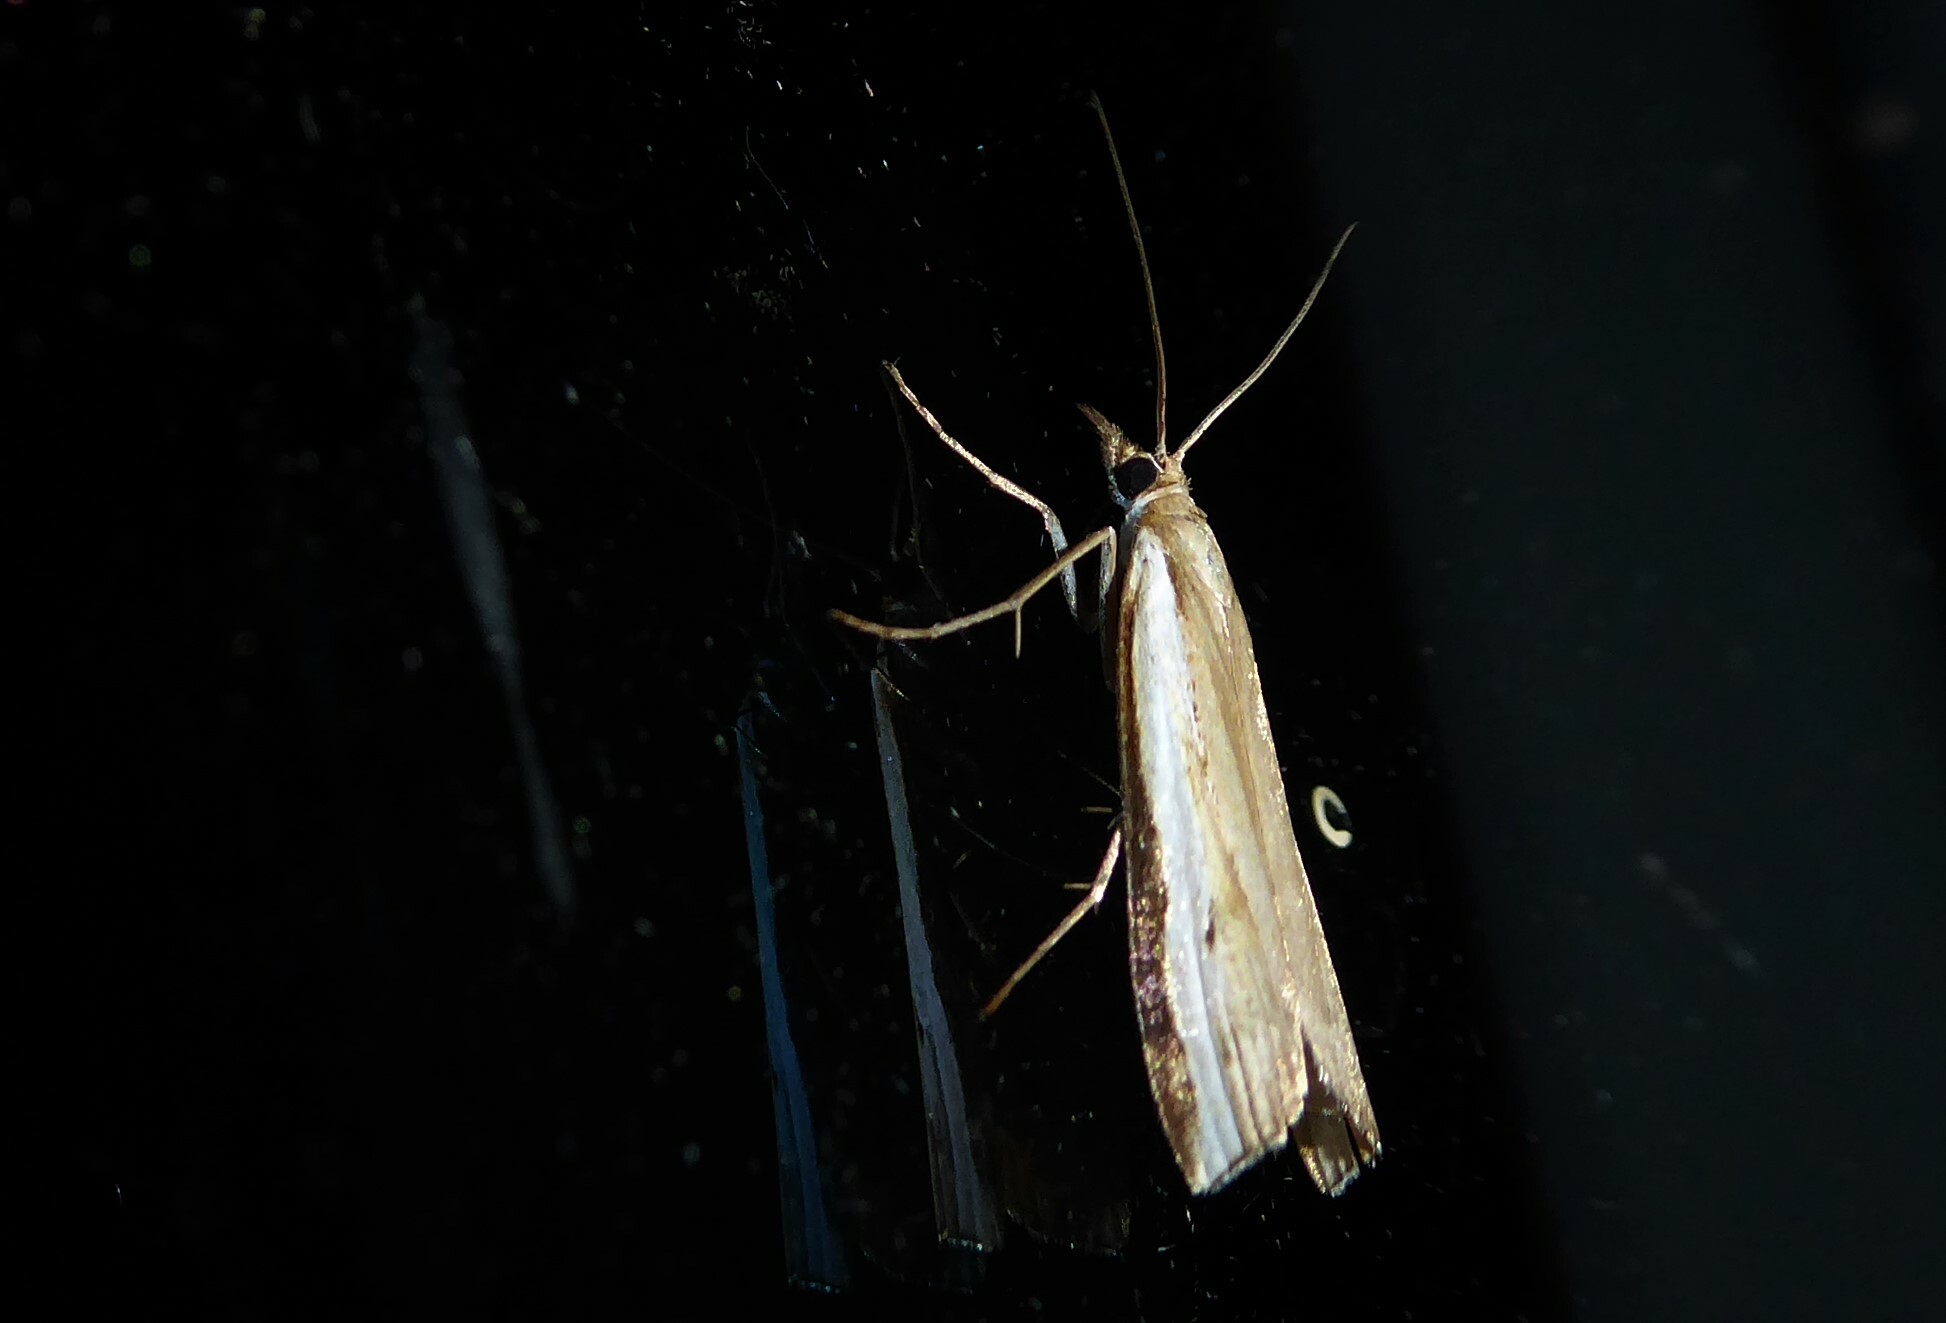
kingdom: Animalia
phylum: Arthropoda
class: Insecta
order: Lepidoptera
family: Crambidae
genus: Orocrambus
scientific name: Orocrambus flexuosellus
